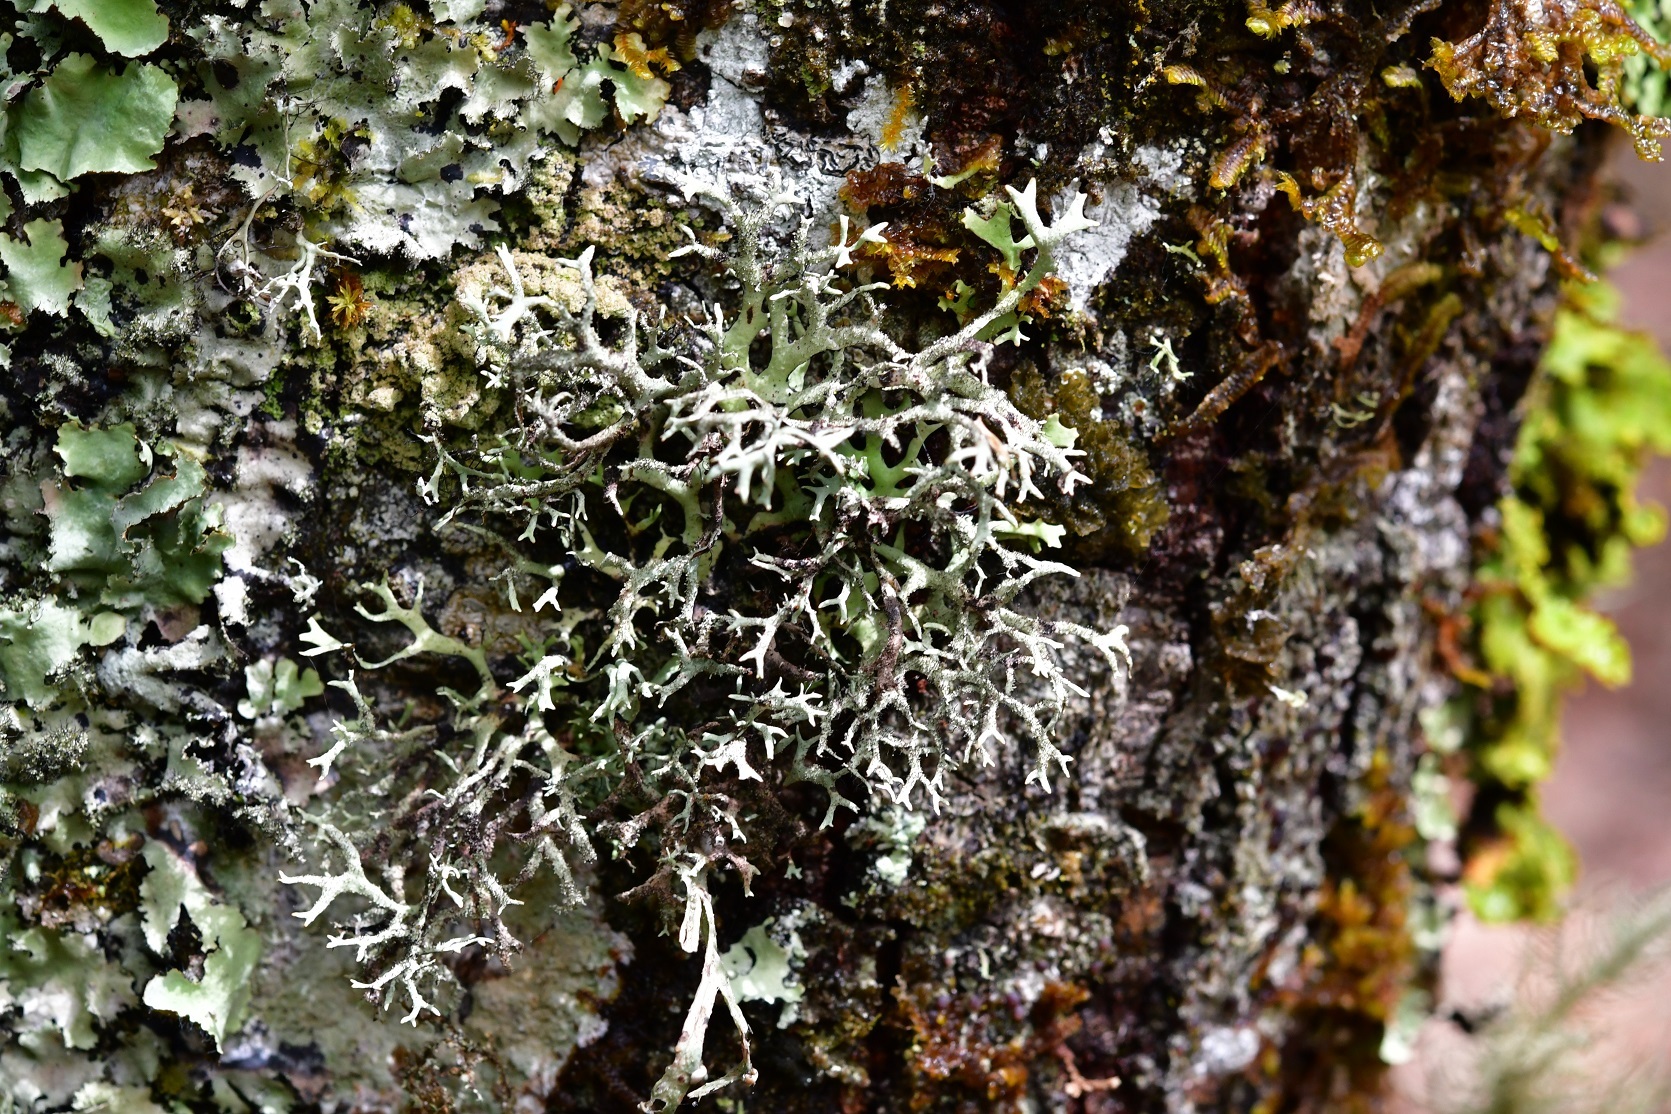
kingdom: Fungi
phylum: Ascomycota
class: Lecanoromycetes
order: Lecanorales
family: Parmeliaceae
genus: Hypotrachyna
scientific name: Hypotrachyna vexans
